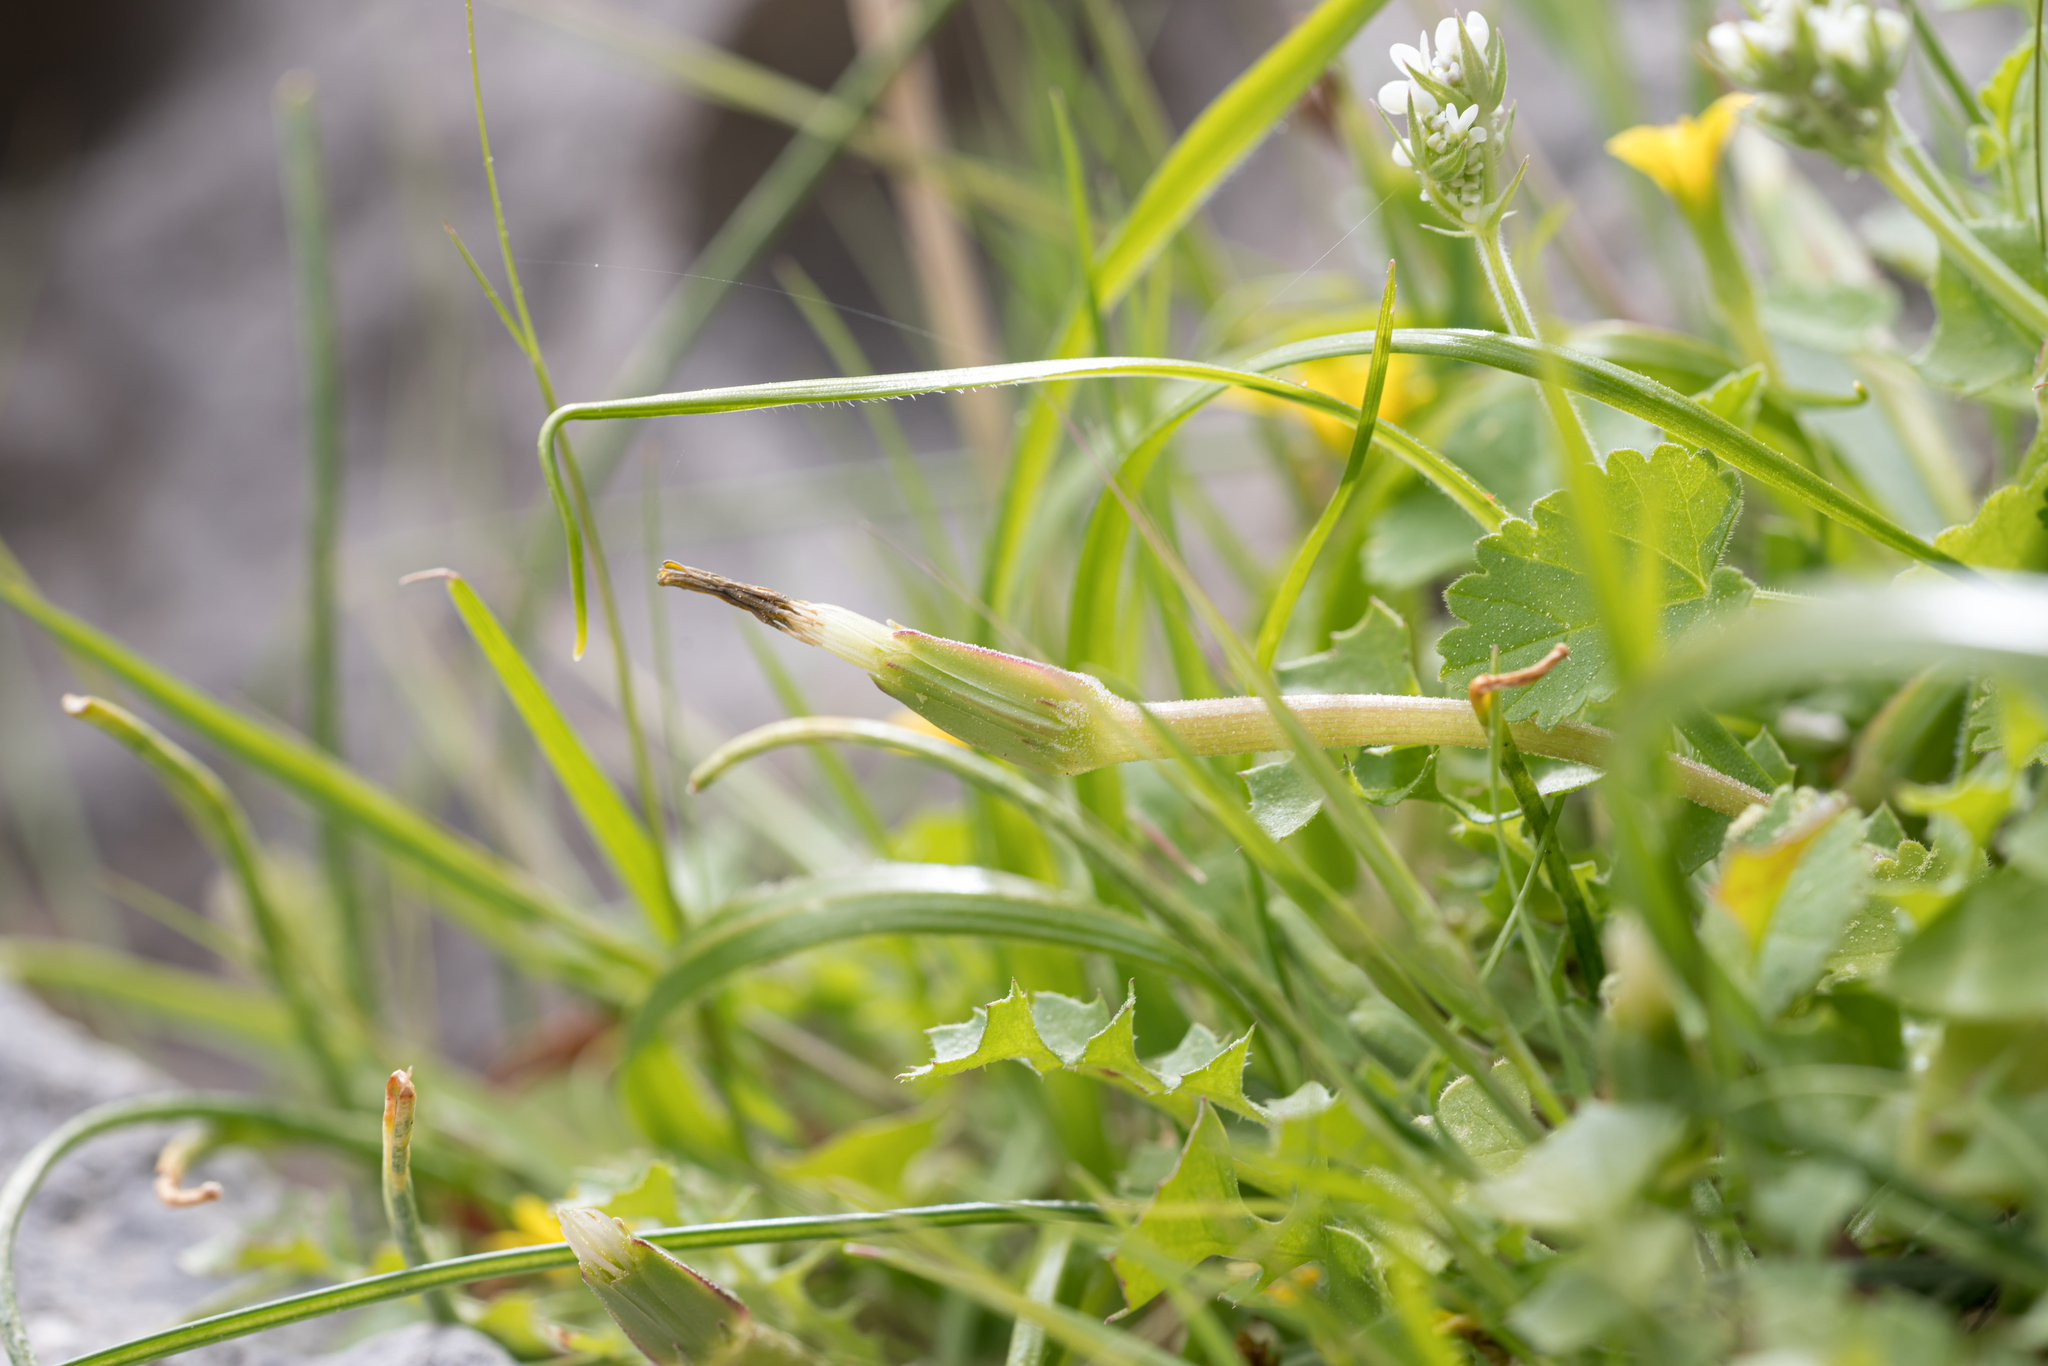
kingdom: Plantae
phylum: Tracheophyta
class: Magnoliopsida
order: Asterales
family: Asteraceae
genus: Hyoseris
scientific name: Hyoseris scabra
